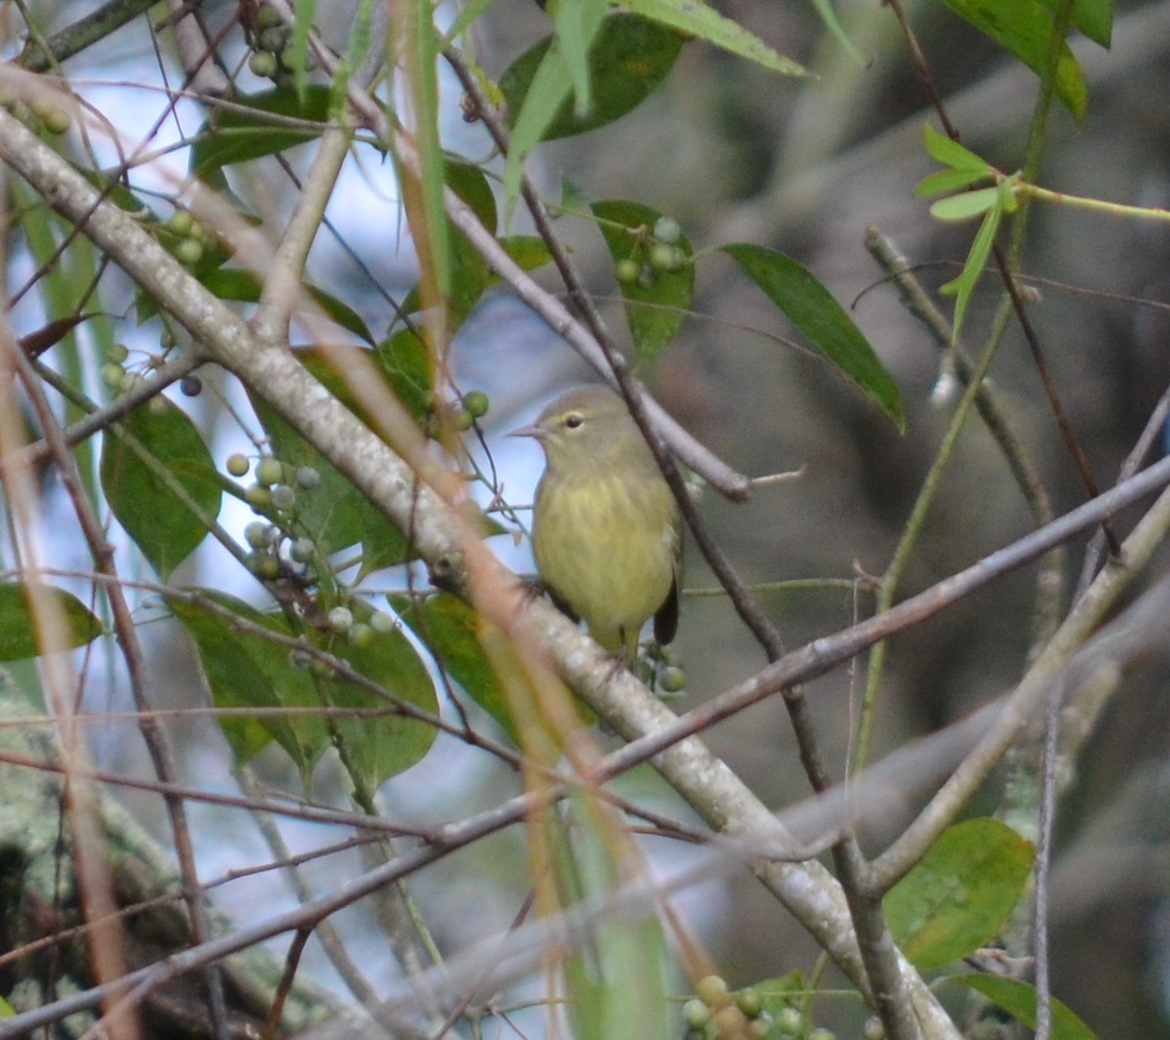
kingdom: Animalia
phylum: Chordata
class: Aves
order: Passeriformes
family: Parulidae
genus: Leiothlypis
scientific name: Leiothlypis celata
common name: Orange-crowned warbler
